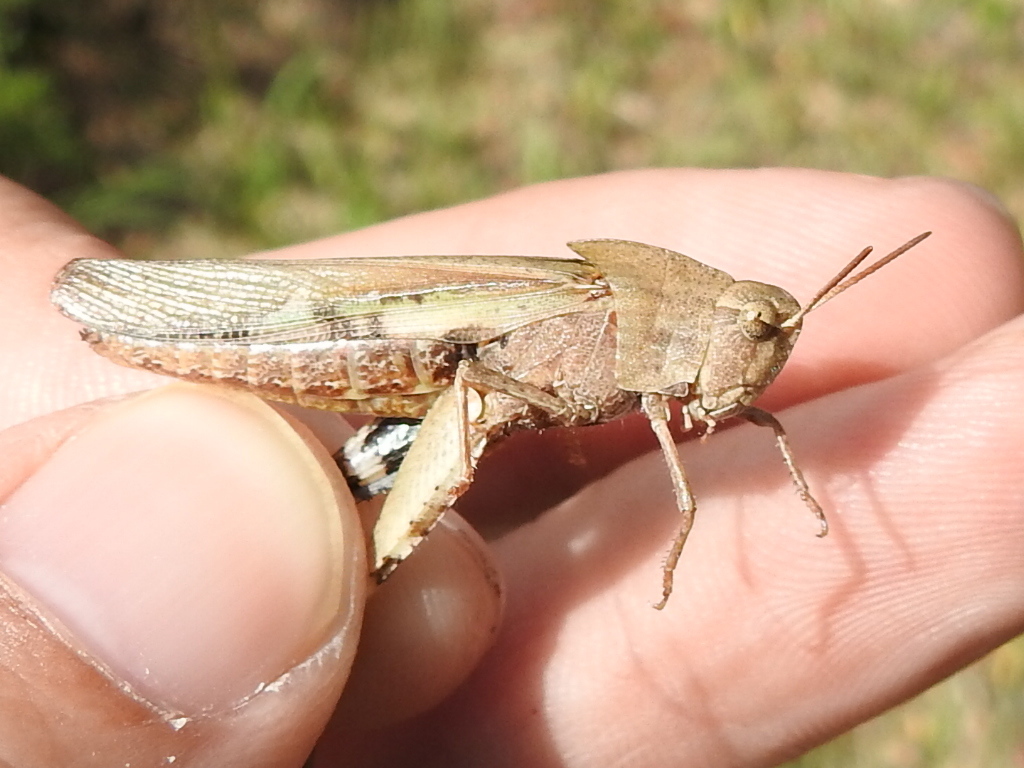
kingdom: Animalia
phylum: Arthropoda
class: Insecta
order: Orthoptera
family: Acrididae
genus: Chortophaga
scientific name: Chortophaga viridifasciata
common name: Green-striped grasshopper
